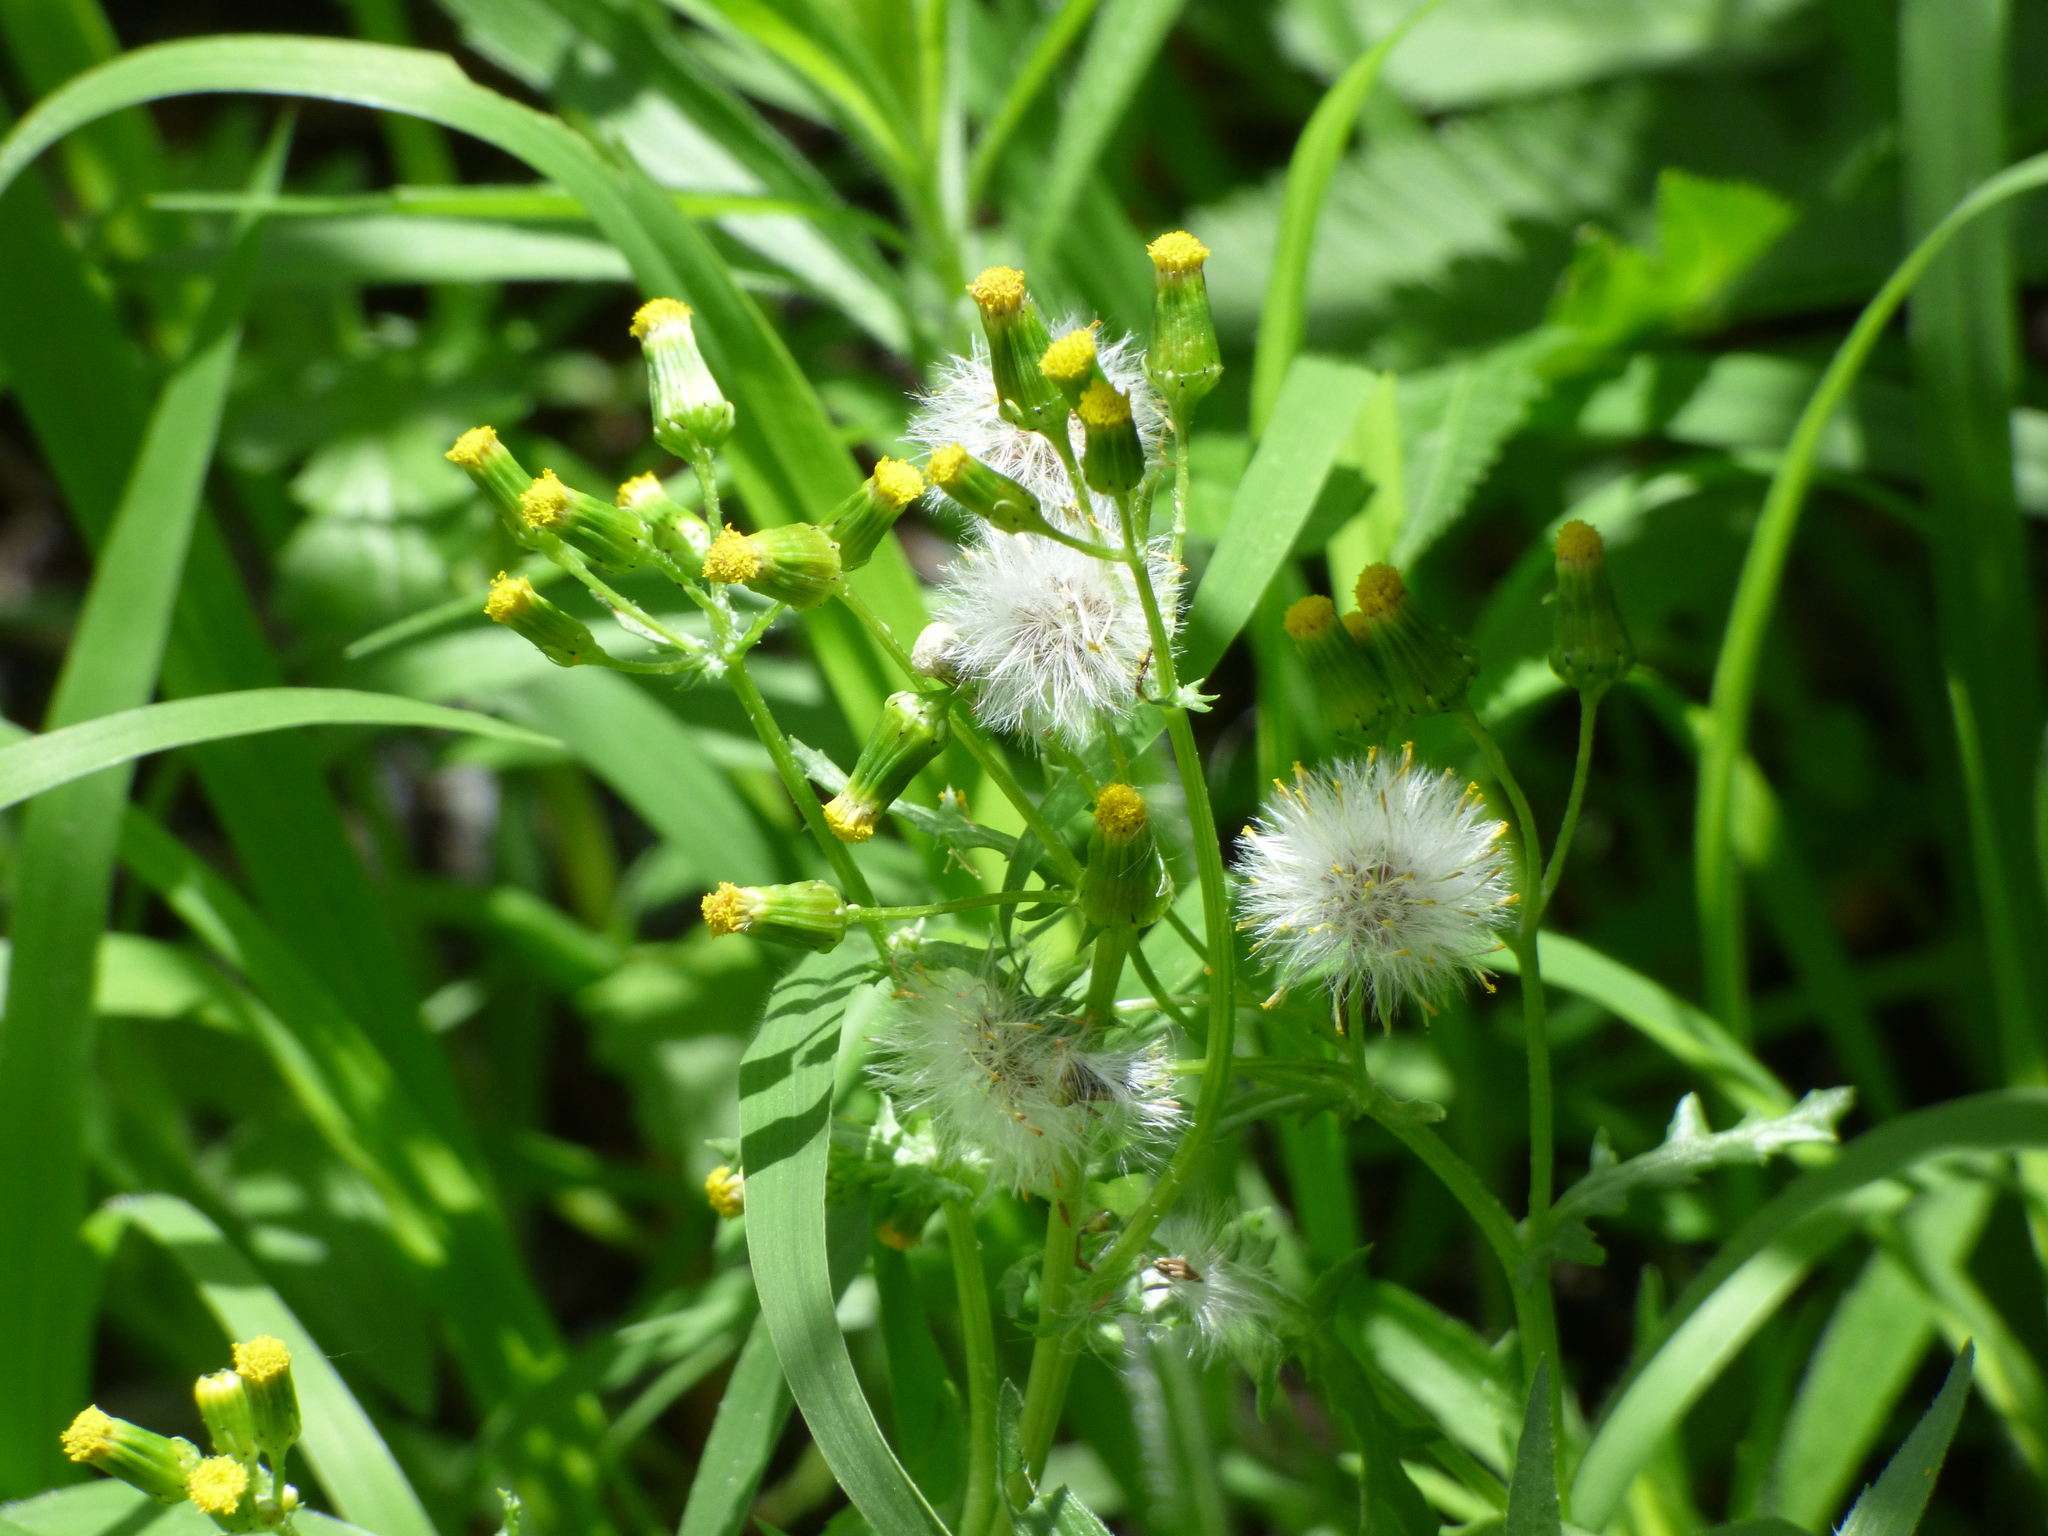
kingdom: Plantae
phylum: Tracheophyta
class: Magnoliopsida
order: Asterales
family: Asteraceae
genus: Senecio
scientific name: Senecio vulgaris
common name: Old-man-in-the-spring
